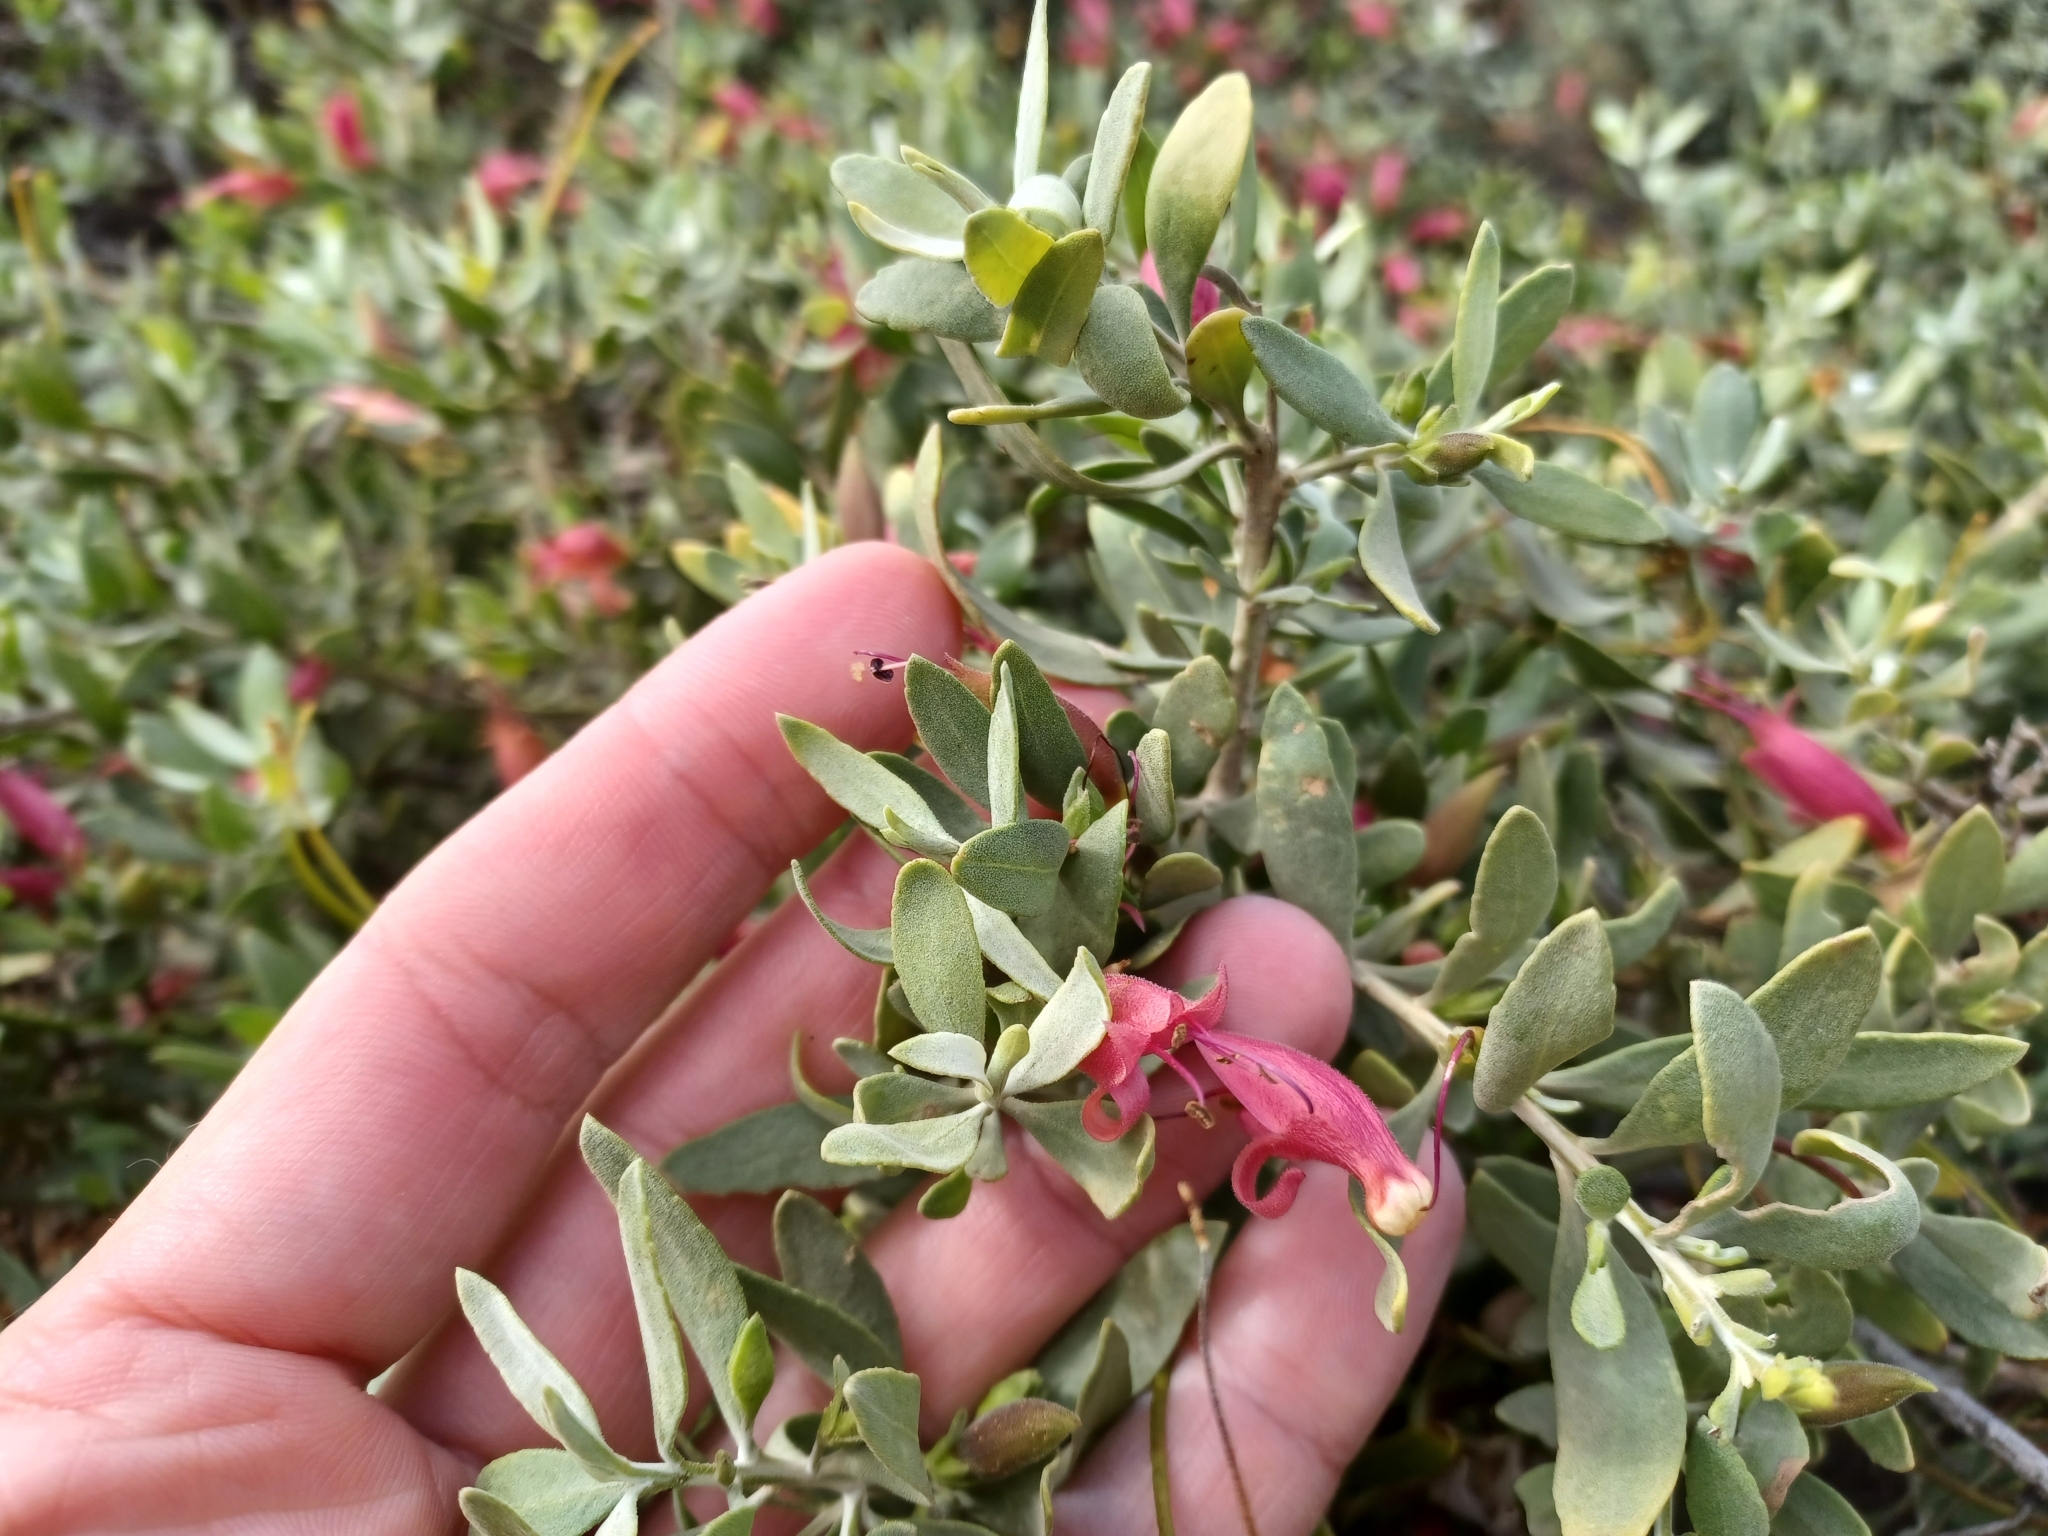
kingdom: Plantae
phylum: Tracheophyta
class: Magnoliopsida
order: Lamiales
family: Scrophulariaceae
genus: Eremophila
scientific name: Eremophila glabra
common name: Black-fuchsia
